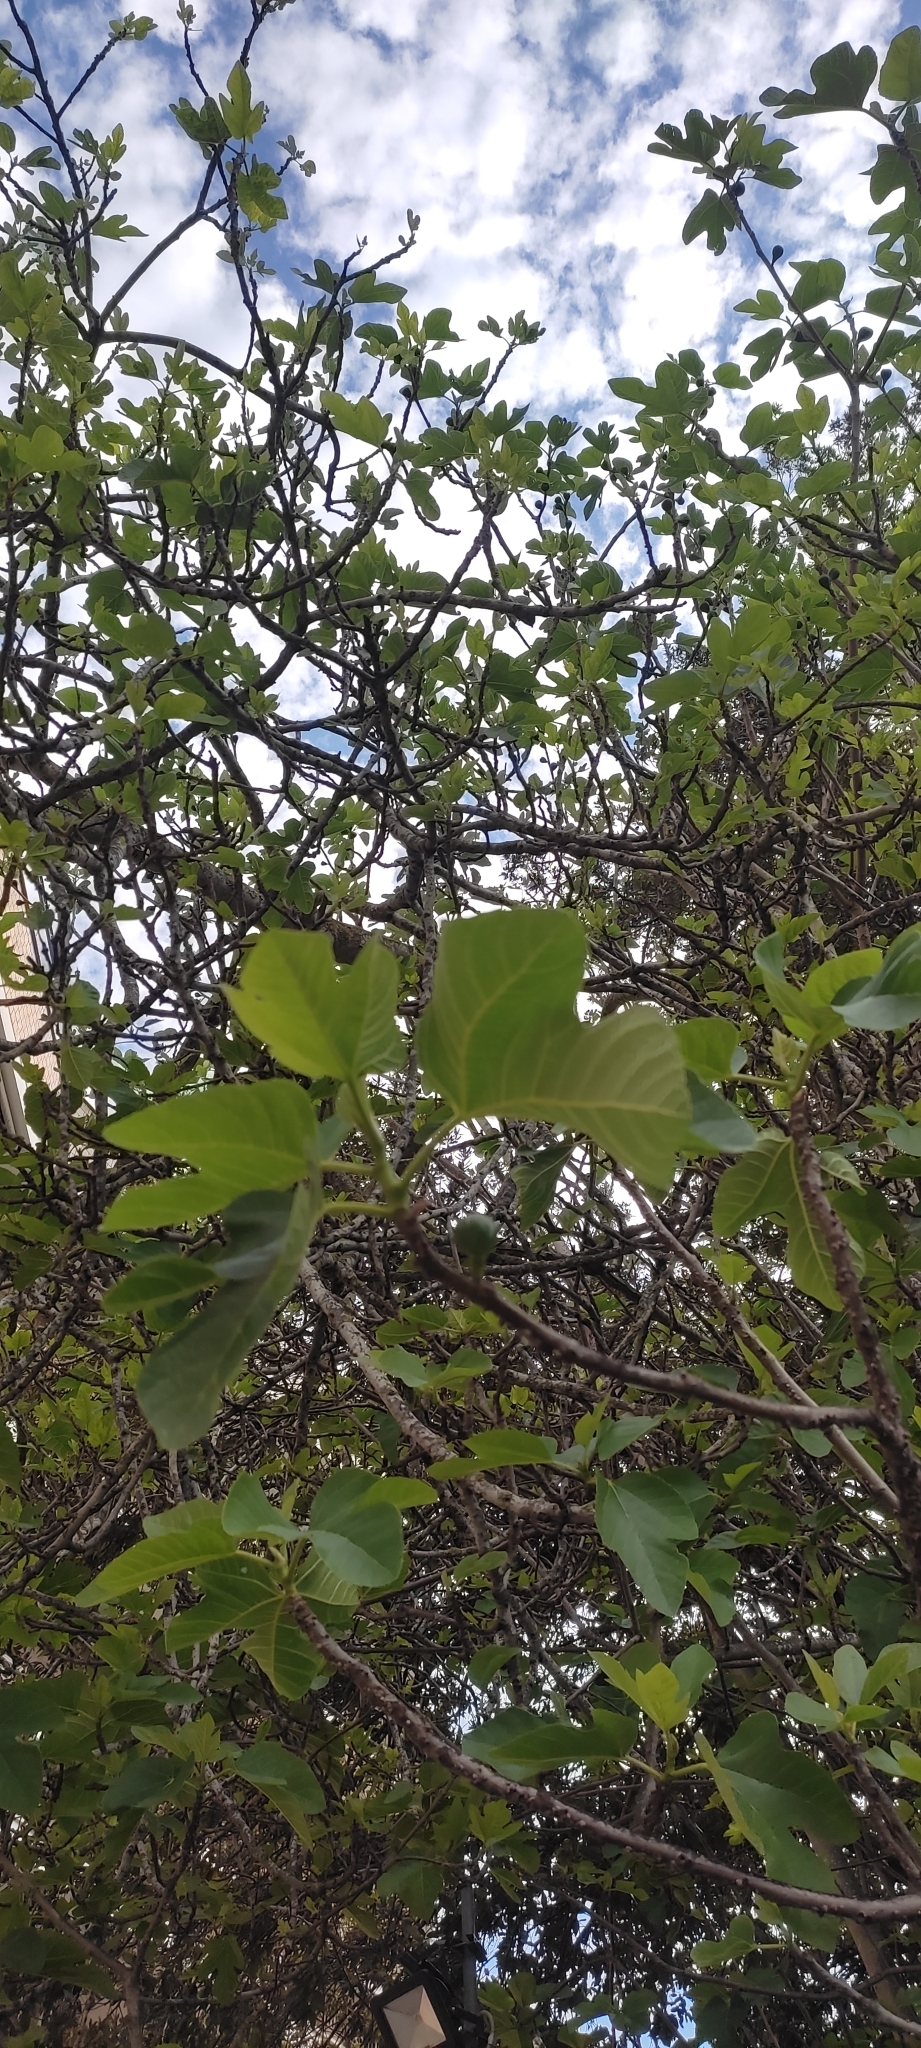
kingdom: Plantae
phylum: Tracheophyta
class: Magnoliopsida
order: Rosales
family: Moraceae
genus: Ficus
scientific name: Ficus carica
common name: Fig
